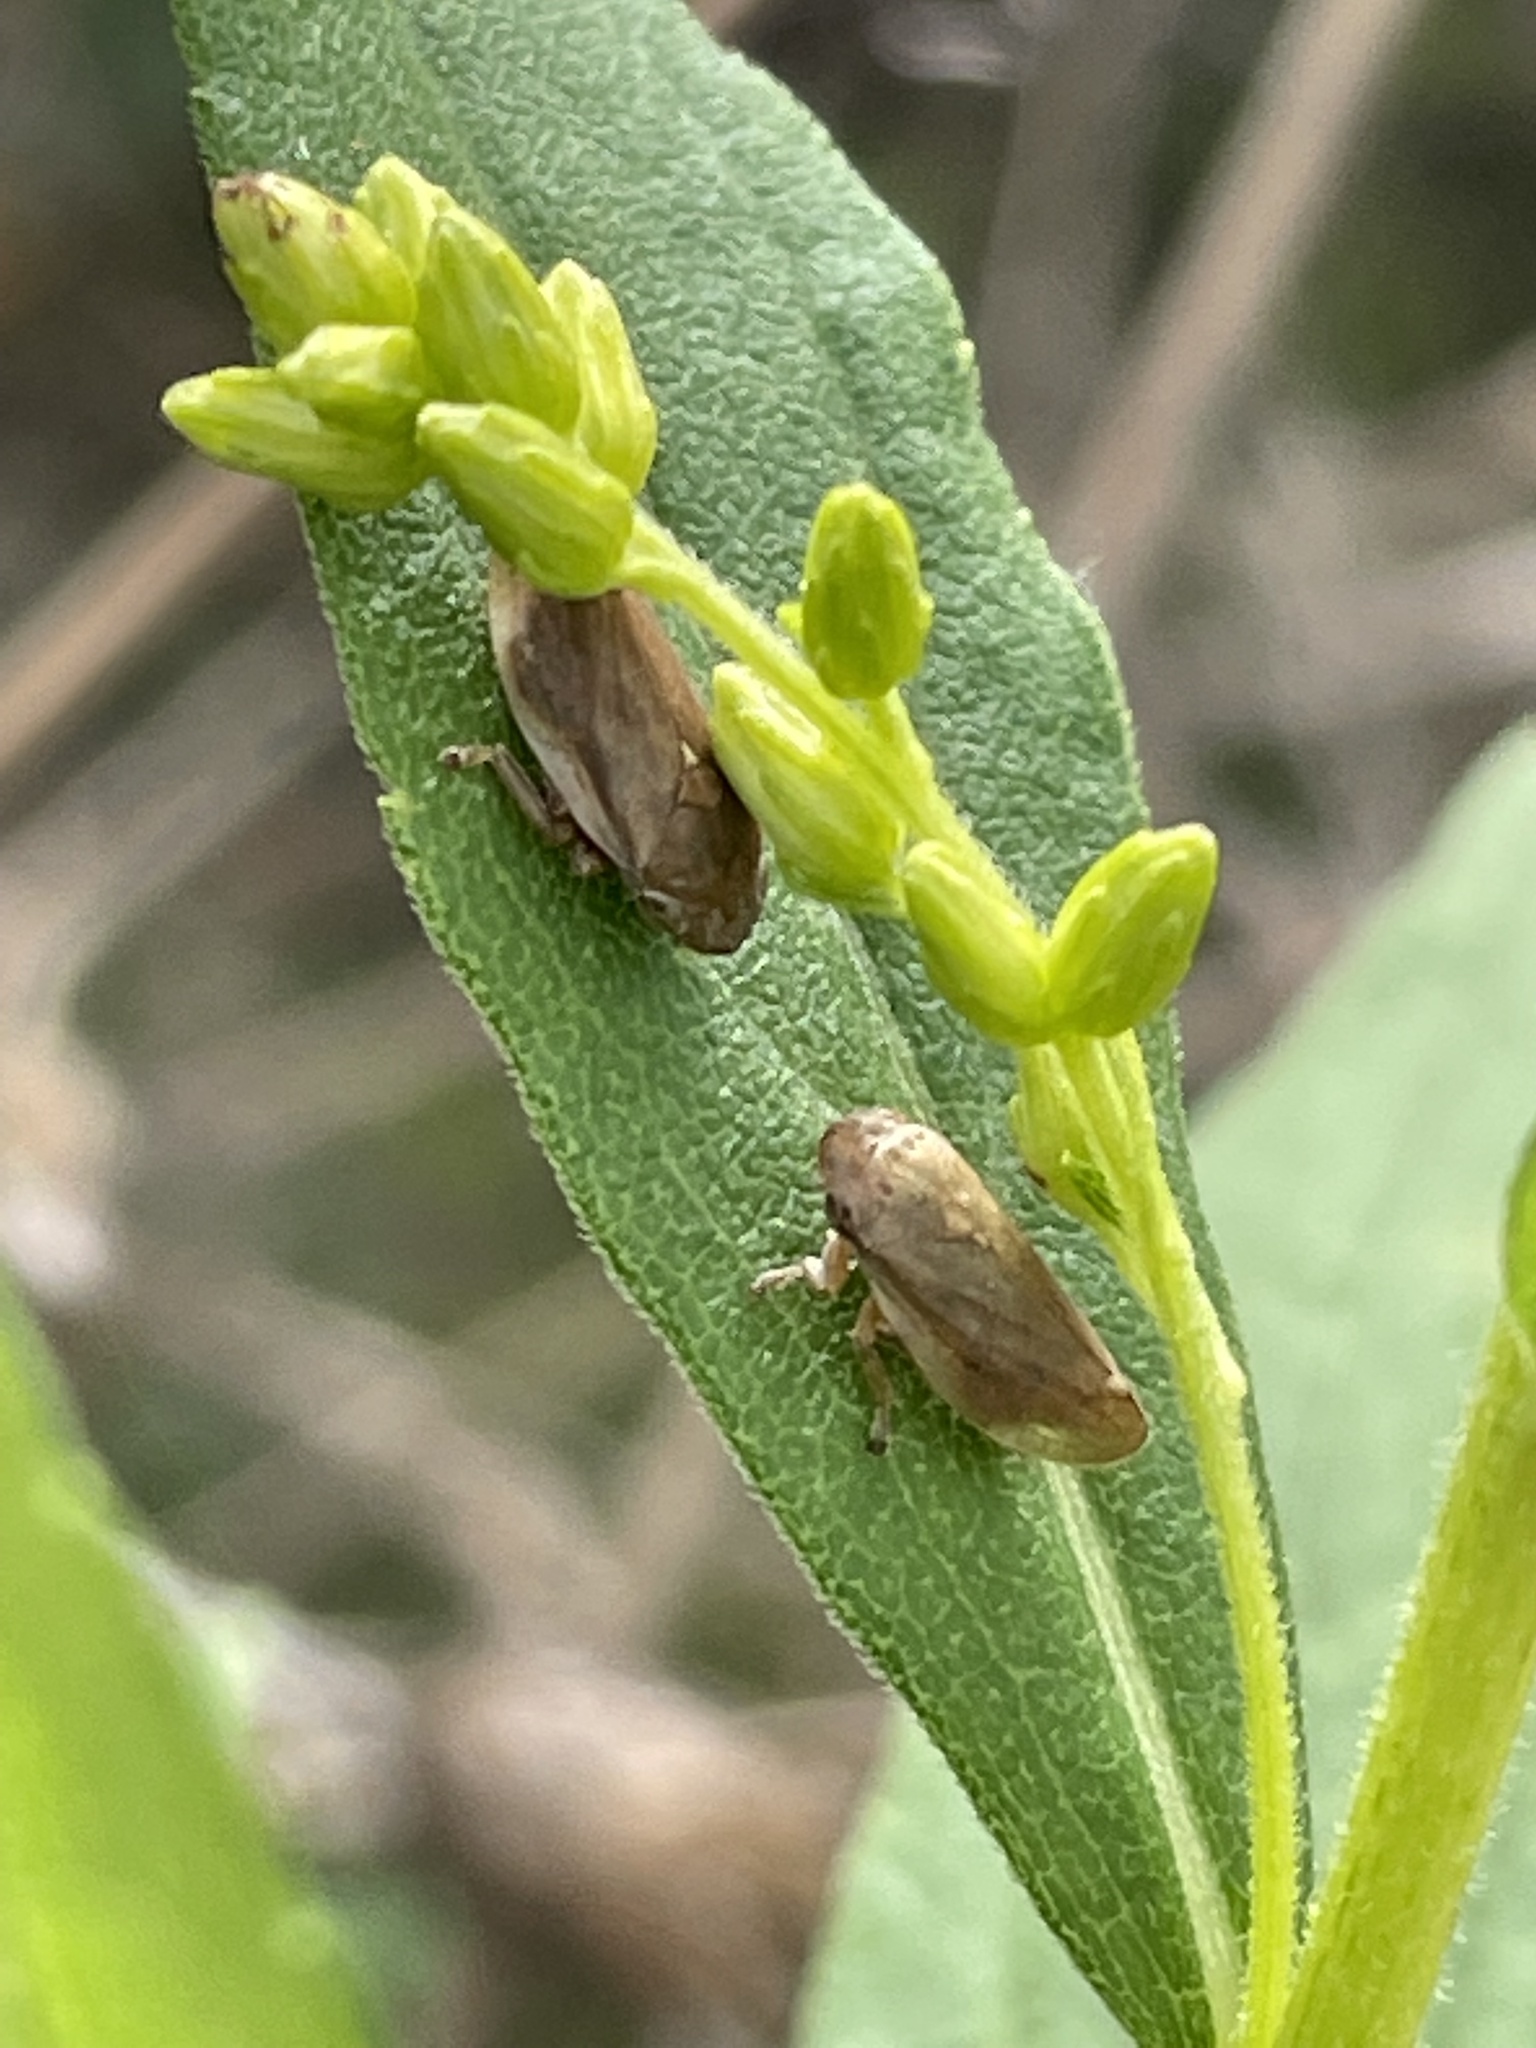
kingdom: Animalia
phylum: Arthropoda
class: Insecta
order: Hemiptera
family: Aphrophoridae
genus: Philaenus
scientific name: Philaenus spumarius
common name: Meadow spittlebug
